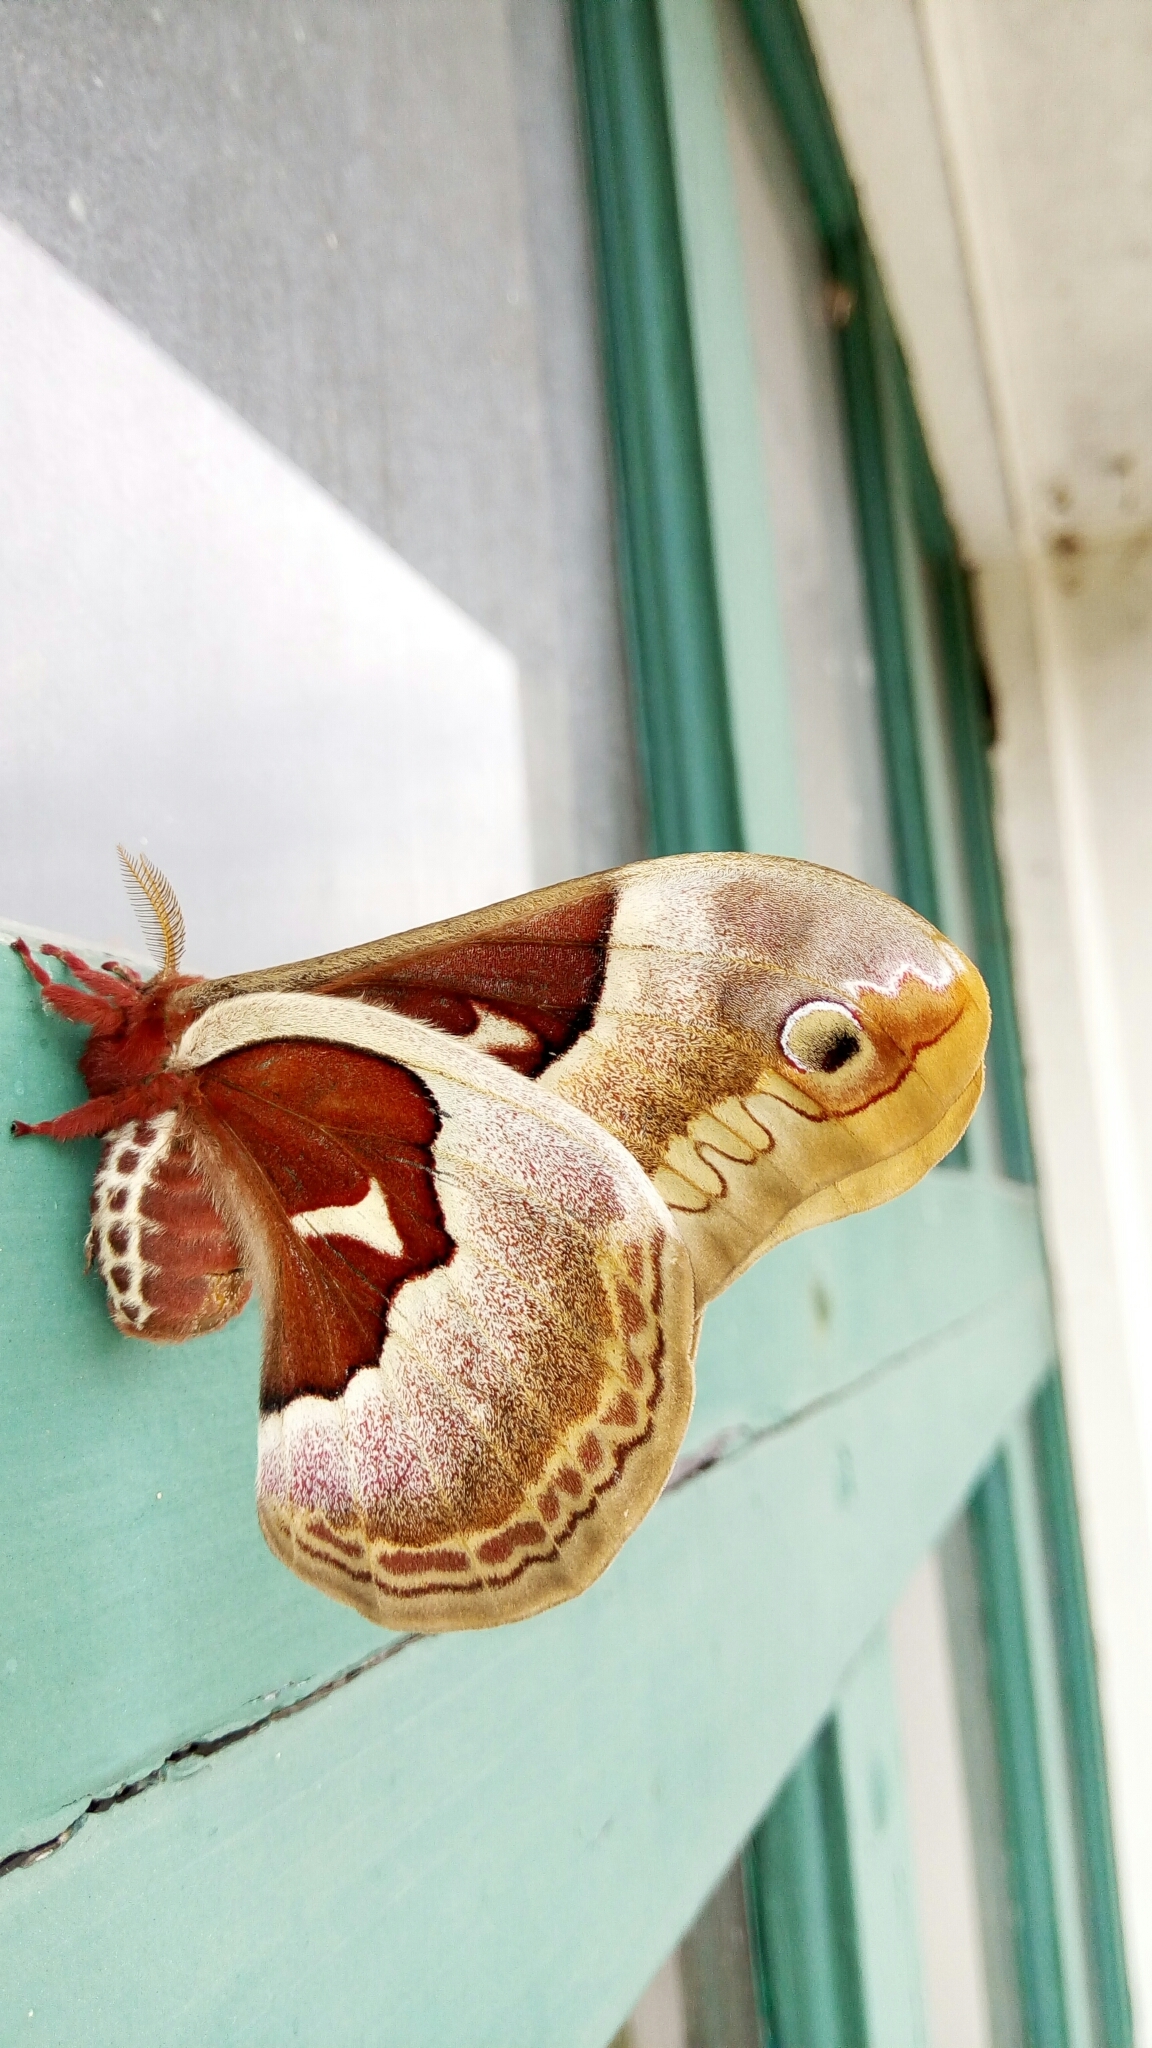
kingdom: Animalia
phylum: Arthropoda
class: Insecta
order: Lepidoptera
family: Saturniidae
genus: Callosamia
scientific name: Callosamia promethea
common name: Promethea silkmoth
